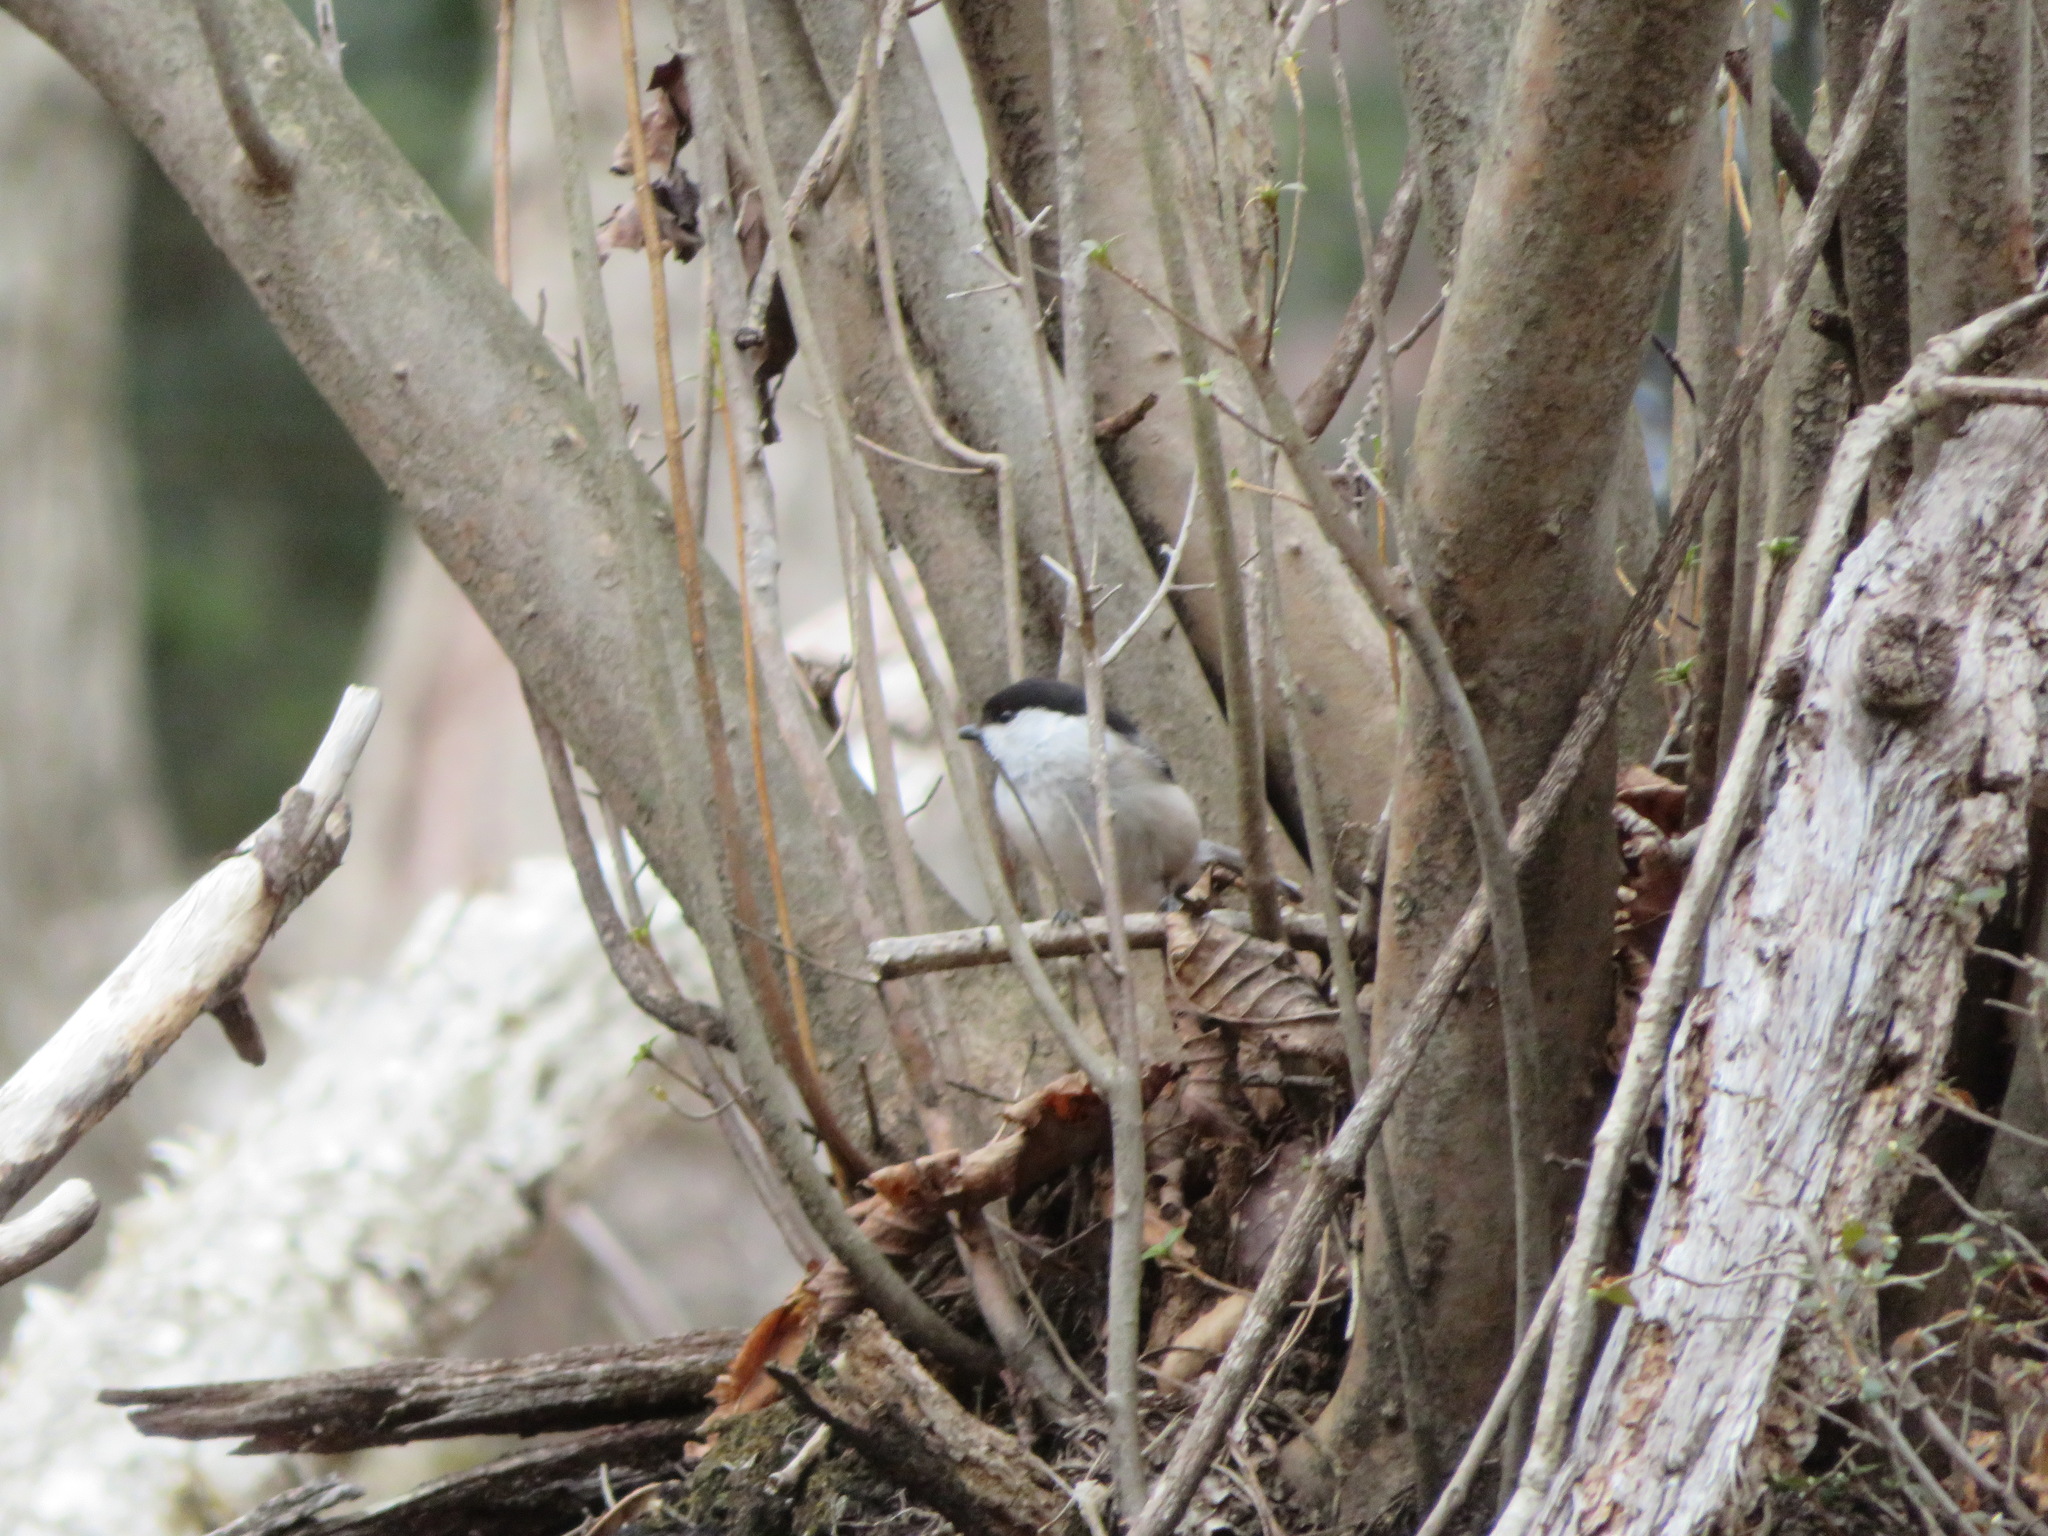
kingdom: Animalia
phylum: Chordata
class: Aves
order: Passeriformes
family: Paridae
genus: Poecile
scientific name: Poecile montanus
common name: Willow tit
